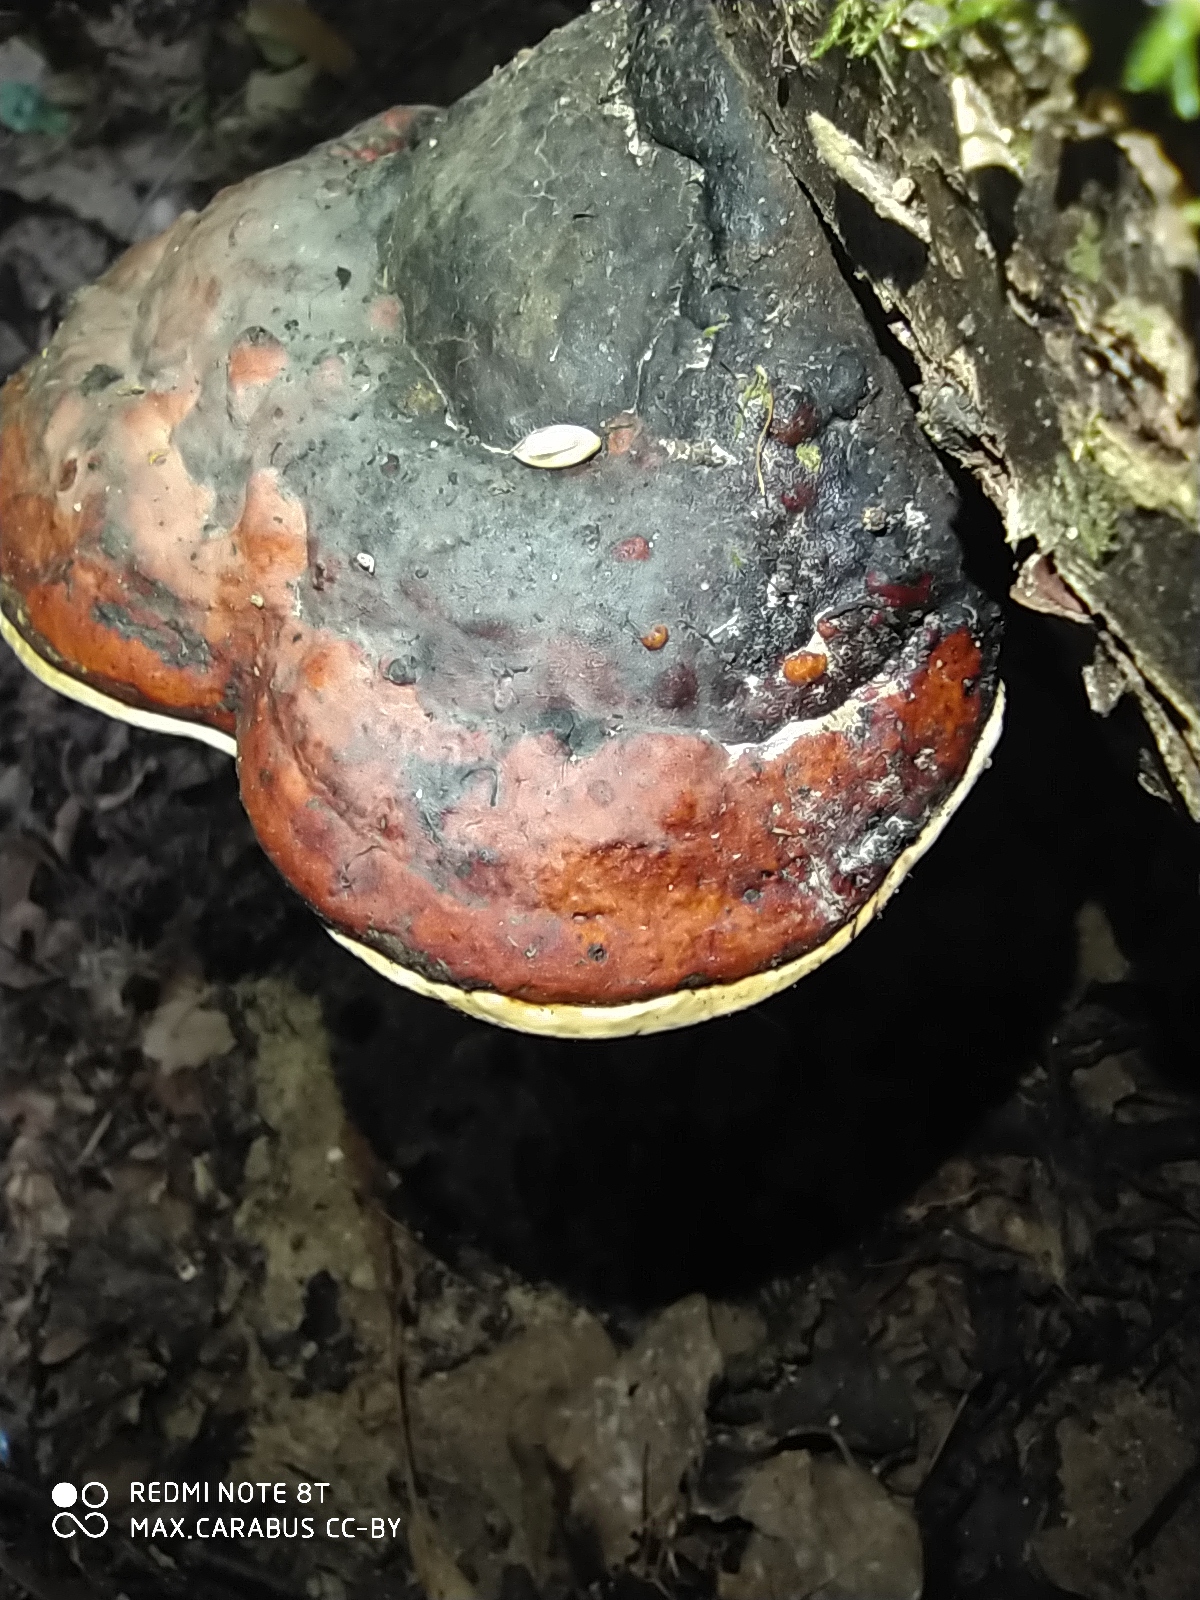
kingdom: Fungi
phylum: Basidiomycota
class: Agaricomycetes
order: Polyporales
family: Fomitopsidaceae
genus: Fomitopsis
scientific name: Fomitopsis pinicola
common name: Red-belted bracket
